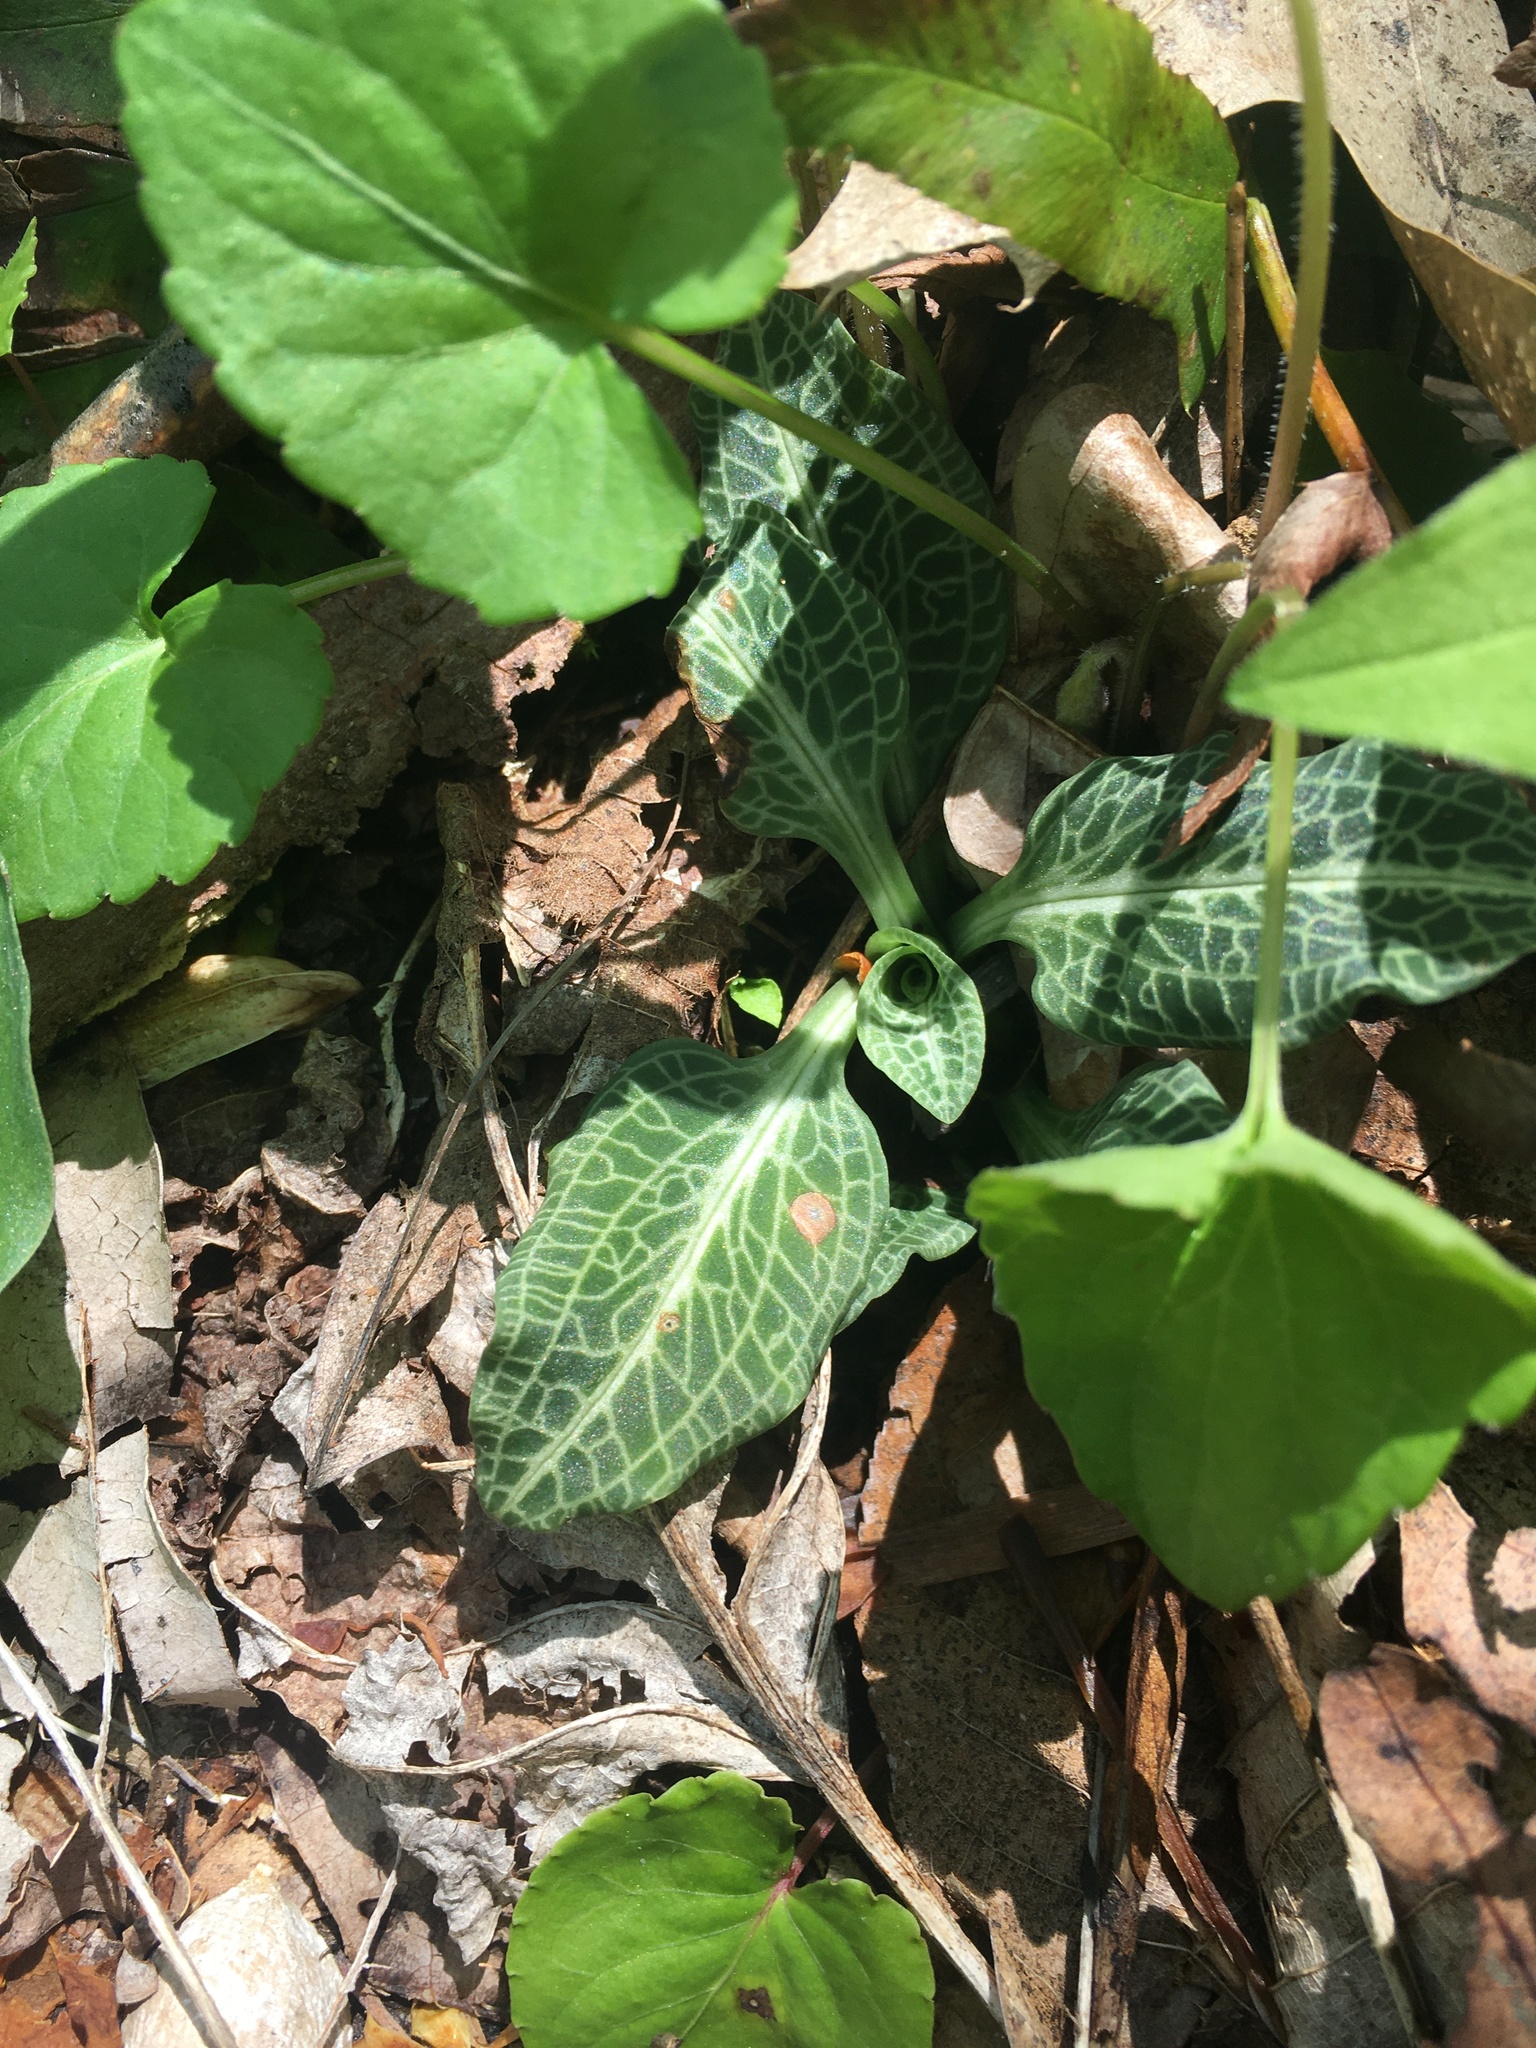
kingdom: Plantae
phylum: Tracheophyta
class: Liliopsida
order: Asparagales
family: Orchidaceae
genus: Goodyera
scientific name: Goodyera pubescens
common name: Downy rattlesnake-plantain
